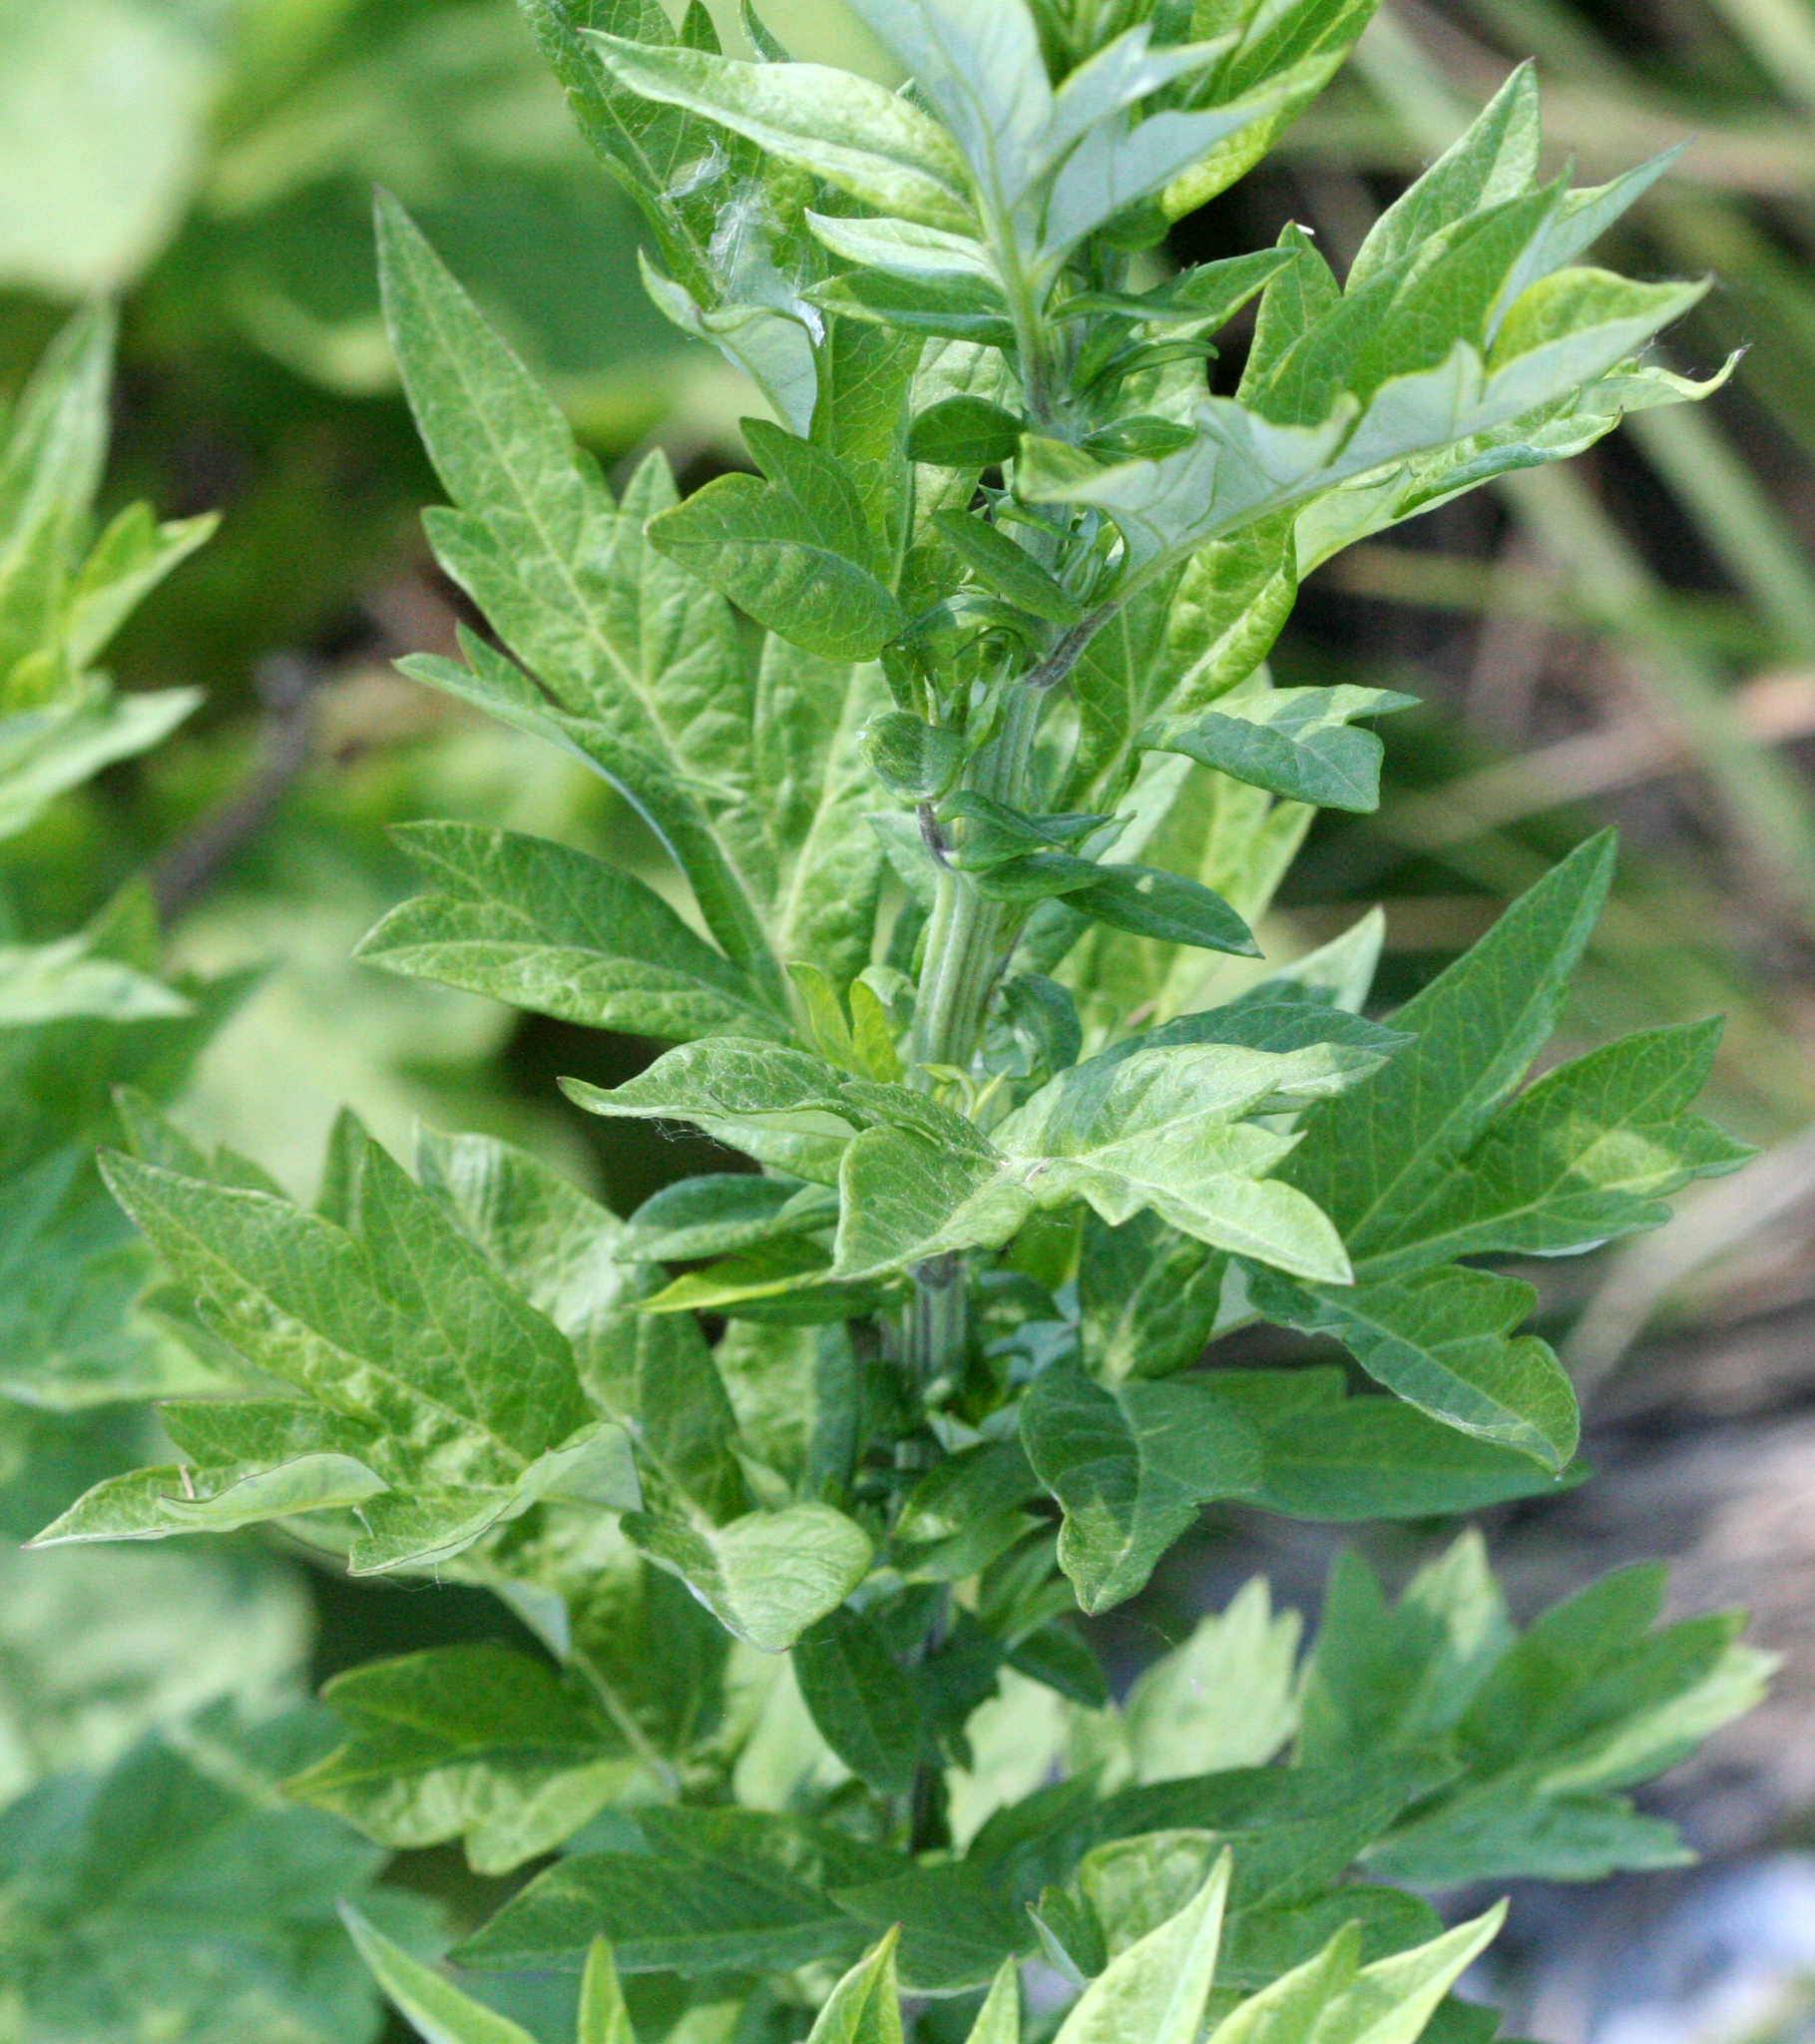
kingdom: Plantae
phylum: Tracheophyta
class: Magnoliopsida
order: Asterales
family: Asteraceae
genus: Artemisia
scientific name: Artemisia vulgaris
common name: Mugwort
